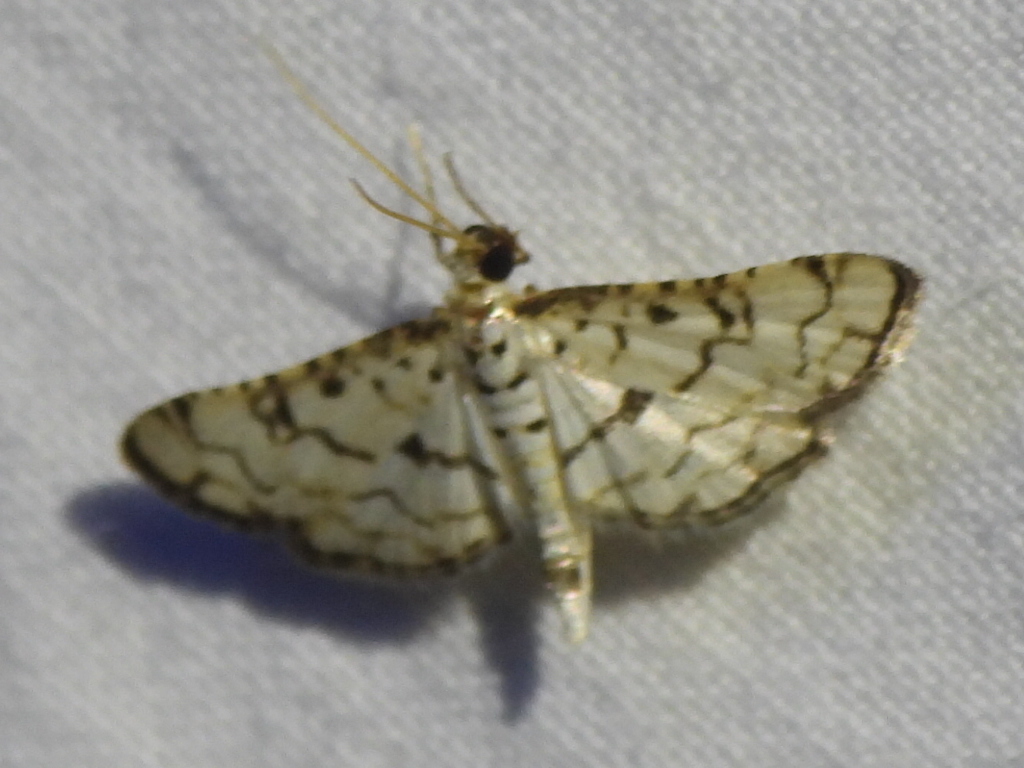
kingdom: Animalia
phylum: Arthropoda
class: Insecta
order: Lepidoptera
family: Crambidae
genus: Hileithia
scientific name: Hileithia rehamalis
